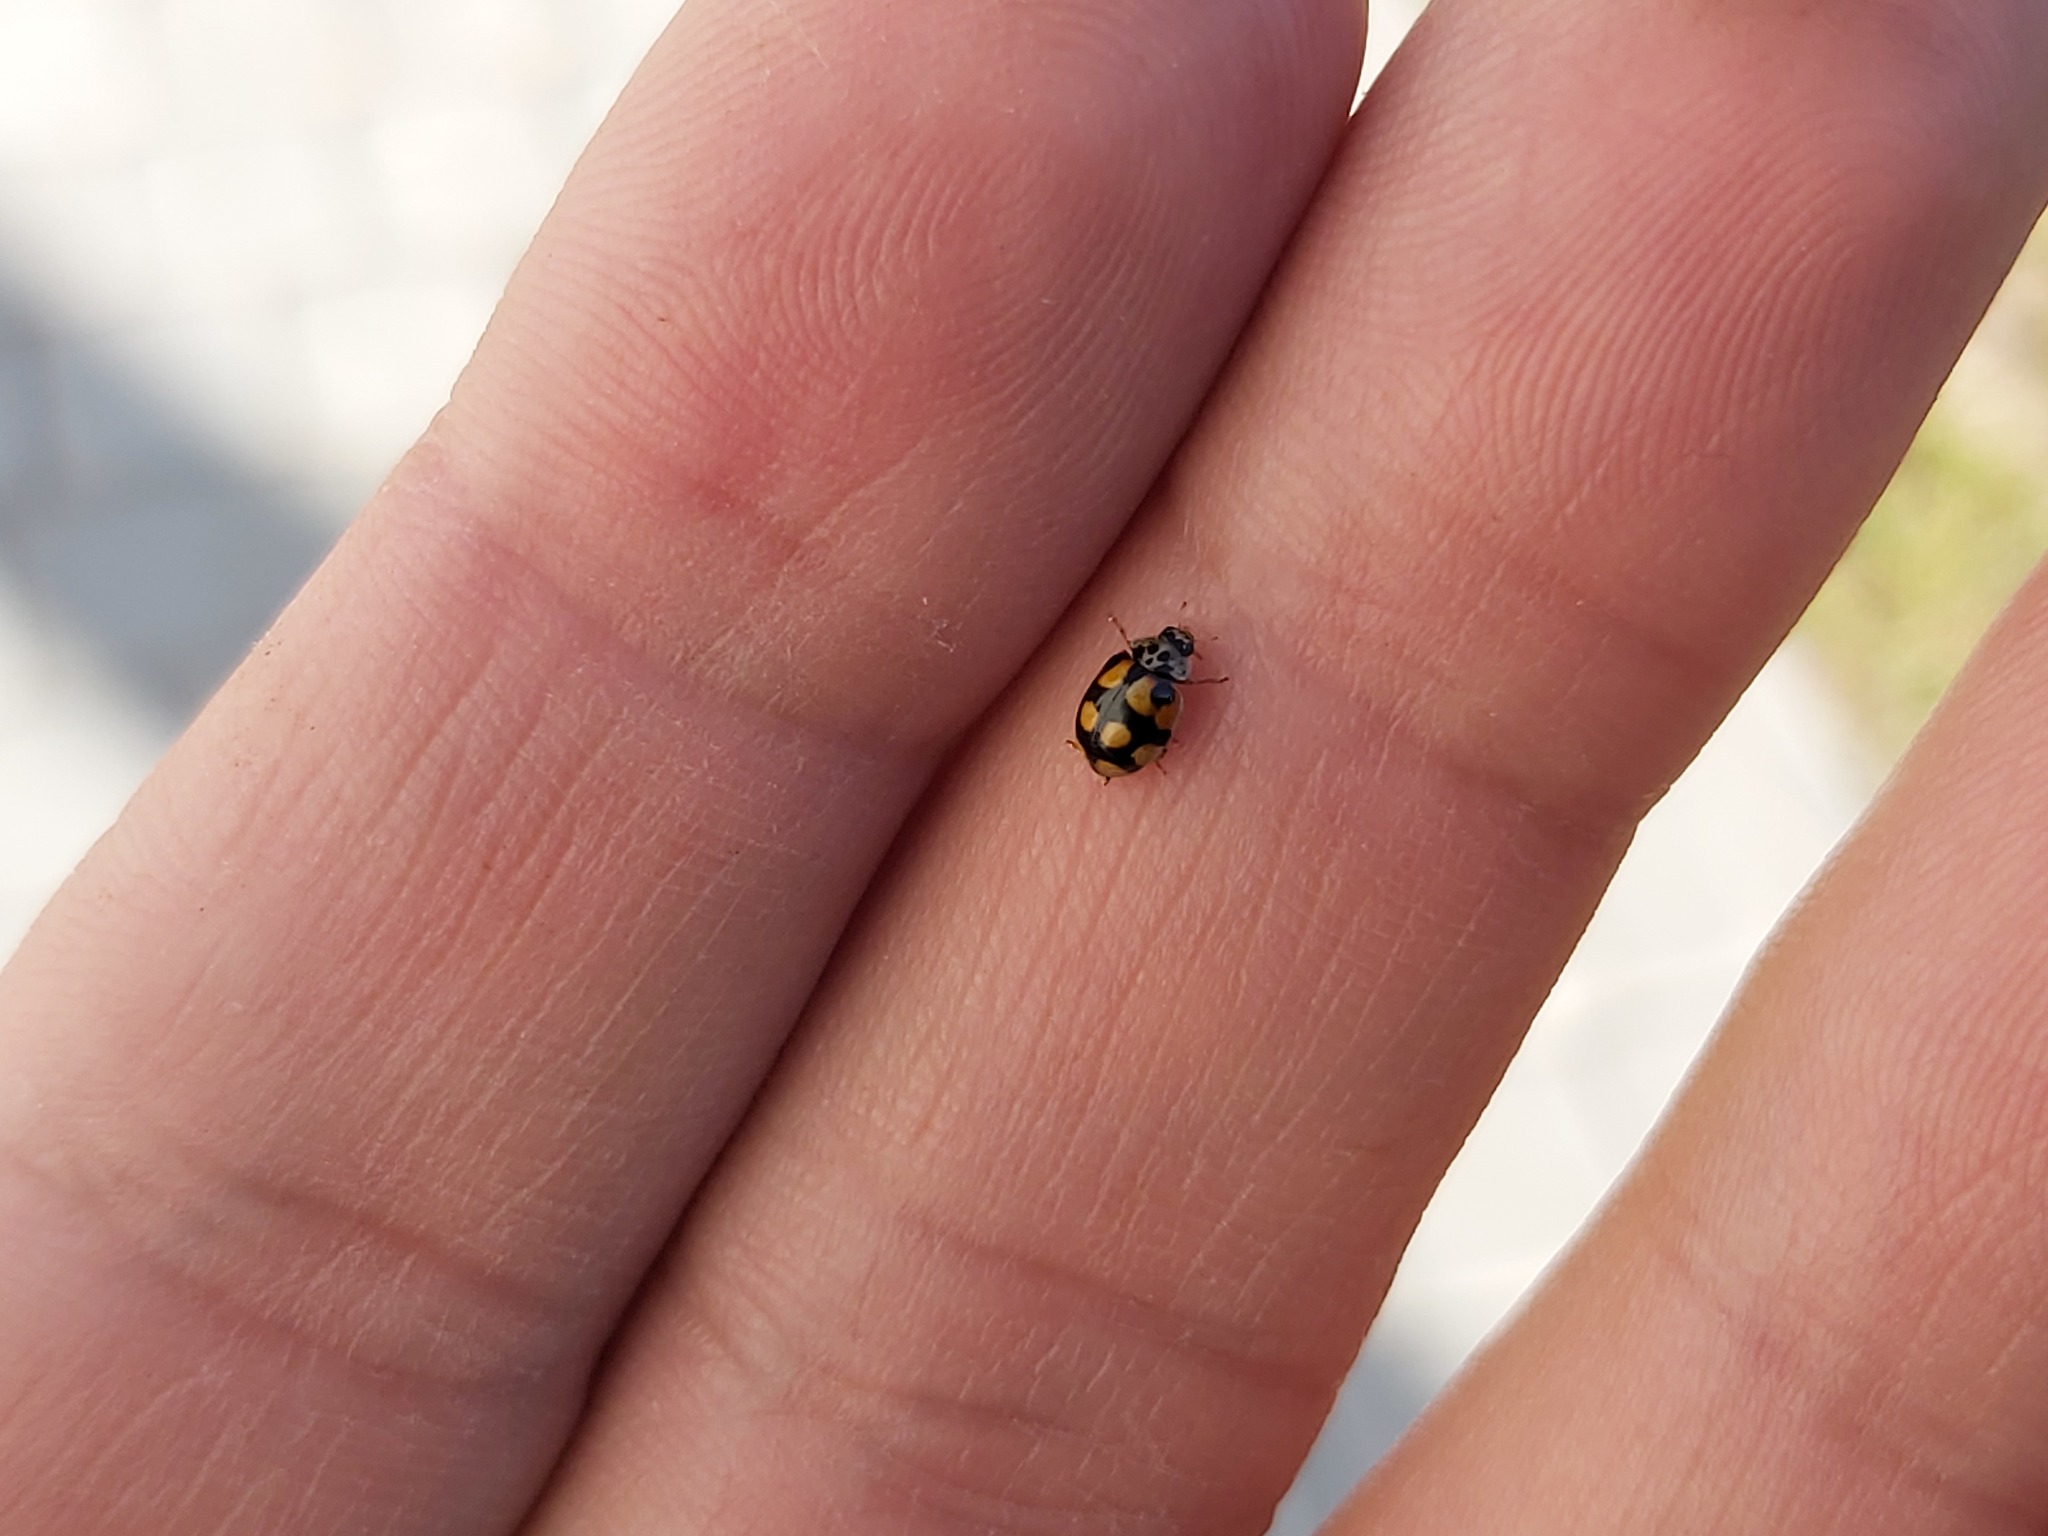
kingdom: Animalia
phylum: Arthropoda
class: Insecta
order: Coleoptera
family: Coccinellidae
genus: Adalia
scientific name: Adalia decempunctata
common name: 10-spot ladybird
